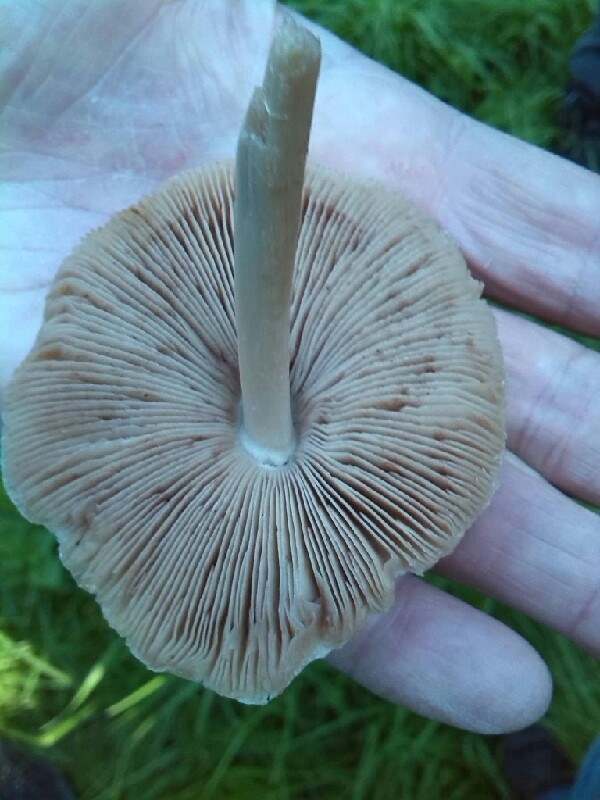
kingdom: Fungi
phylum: Basidiomycota
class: Agaricomycetes
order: Agaricales
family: Pluteaceae
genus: Volvopluteus
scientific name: Volvopluteus gloiocephalus
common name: Stubble rosegill
